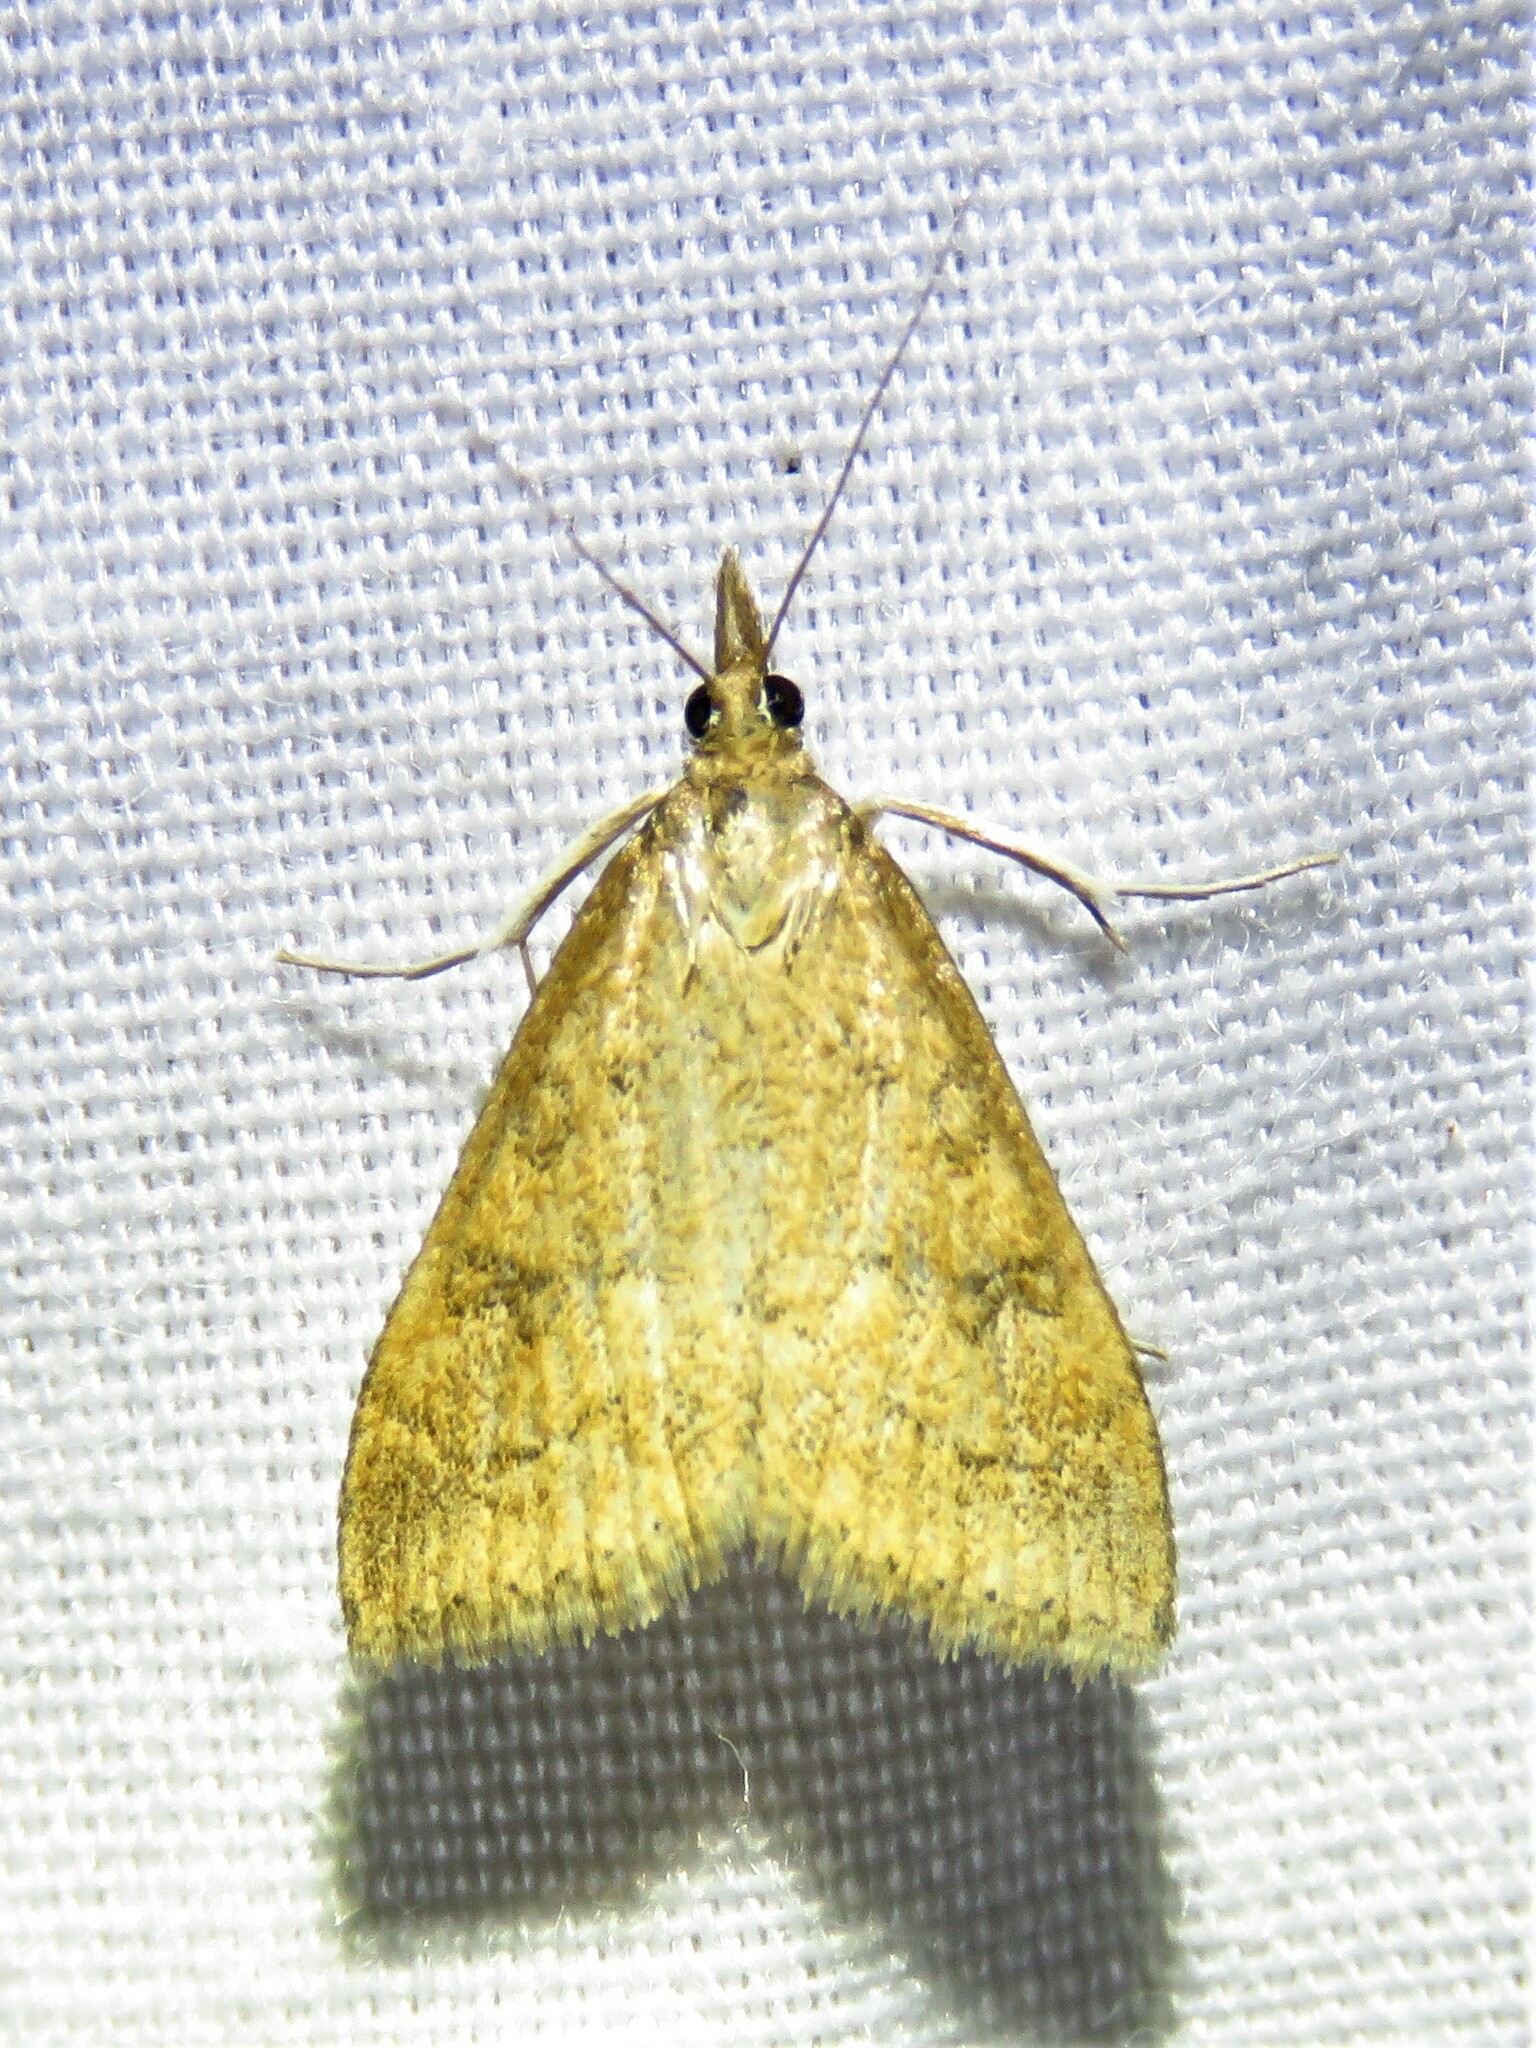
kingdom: Animalia
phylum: Arthropoda
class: Insecta
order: Lepidoptera
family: Crambidae
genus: Udea
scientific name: Udea rubigalis
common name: Celery leaftier moth
